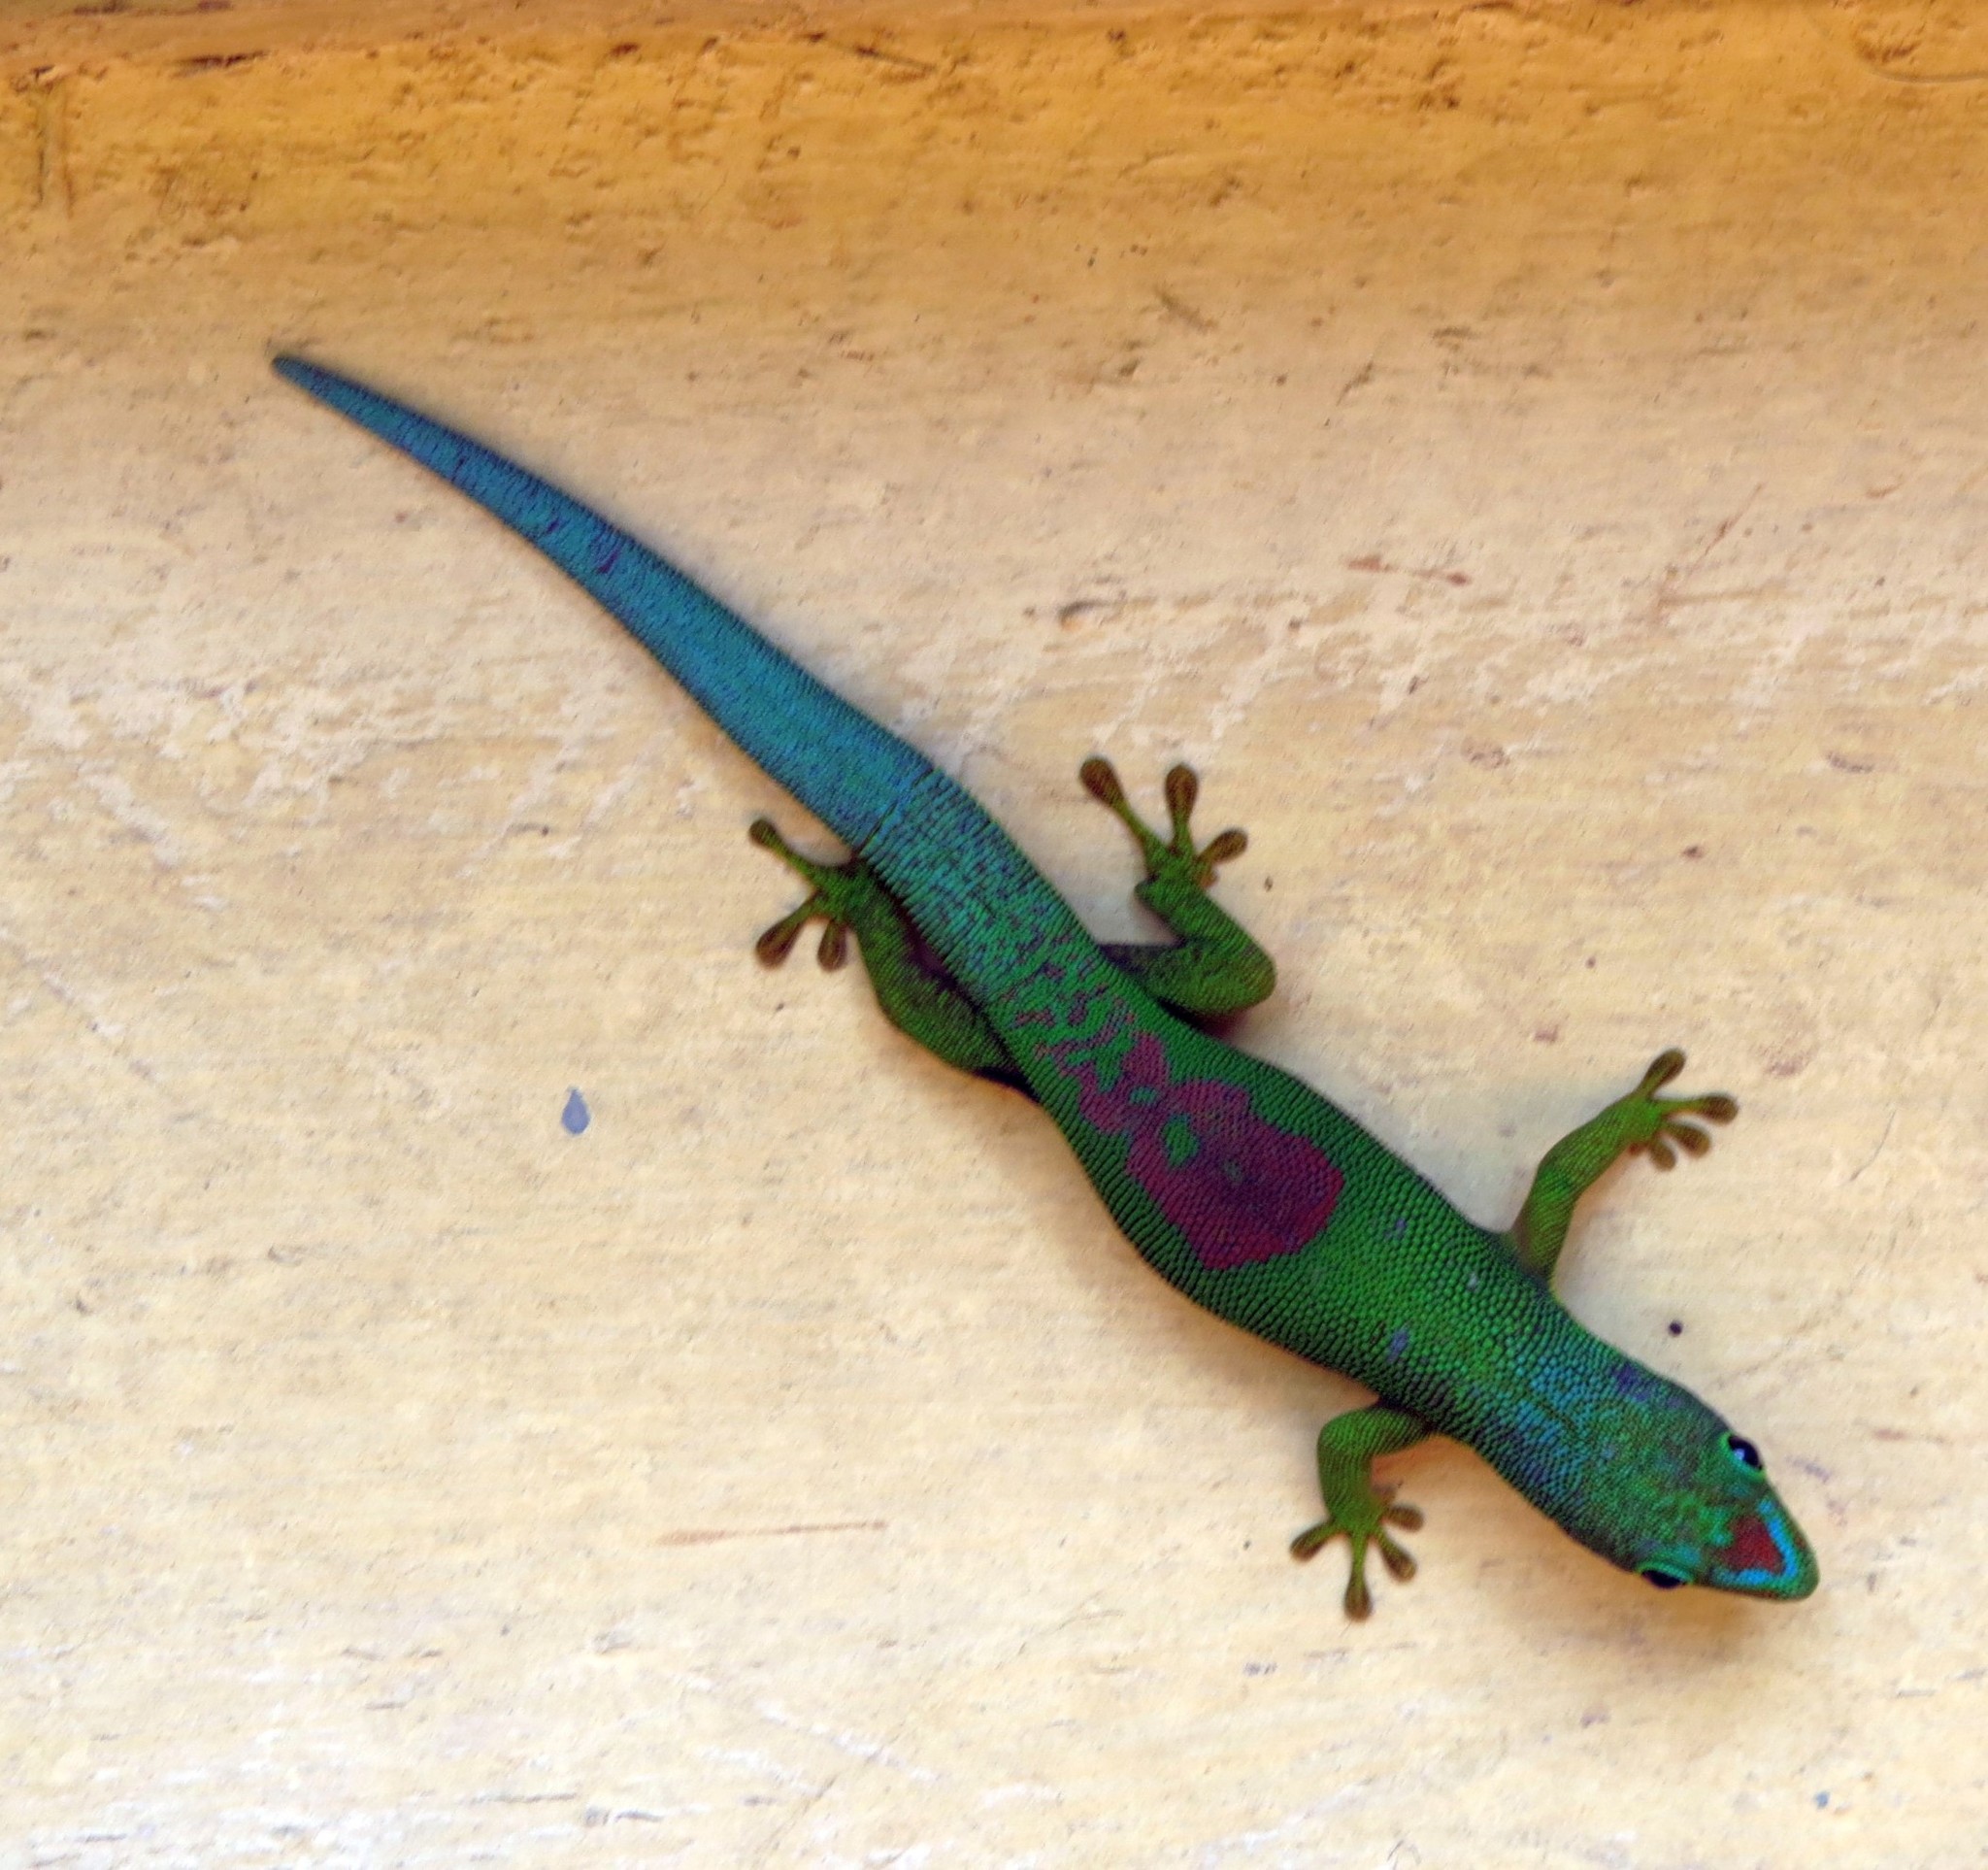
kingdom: Animalia
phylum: Chordata
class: Squamata
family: Gekkonidae
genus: Phelsuma
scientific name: Phelsuma lineata
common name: Lined day gecko
